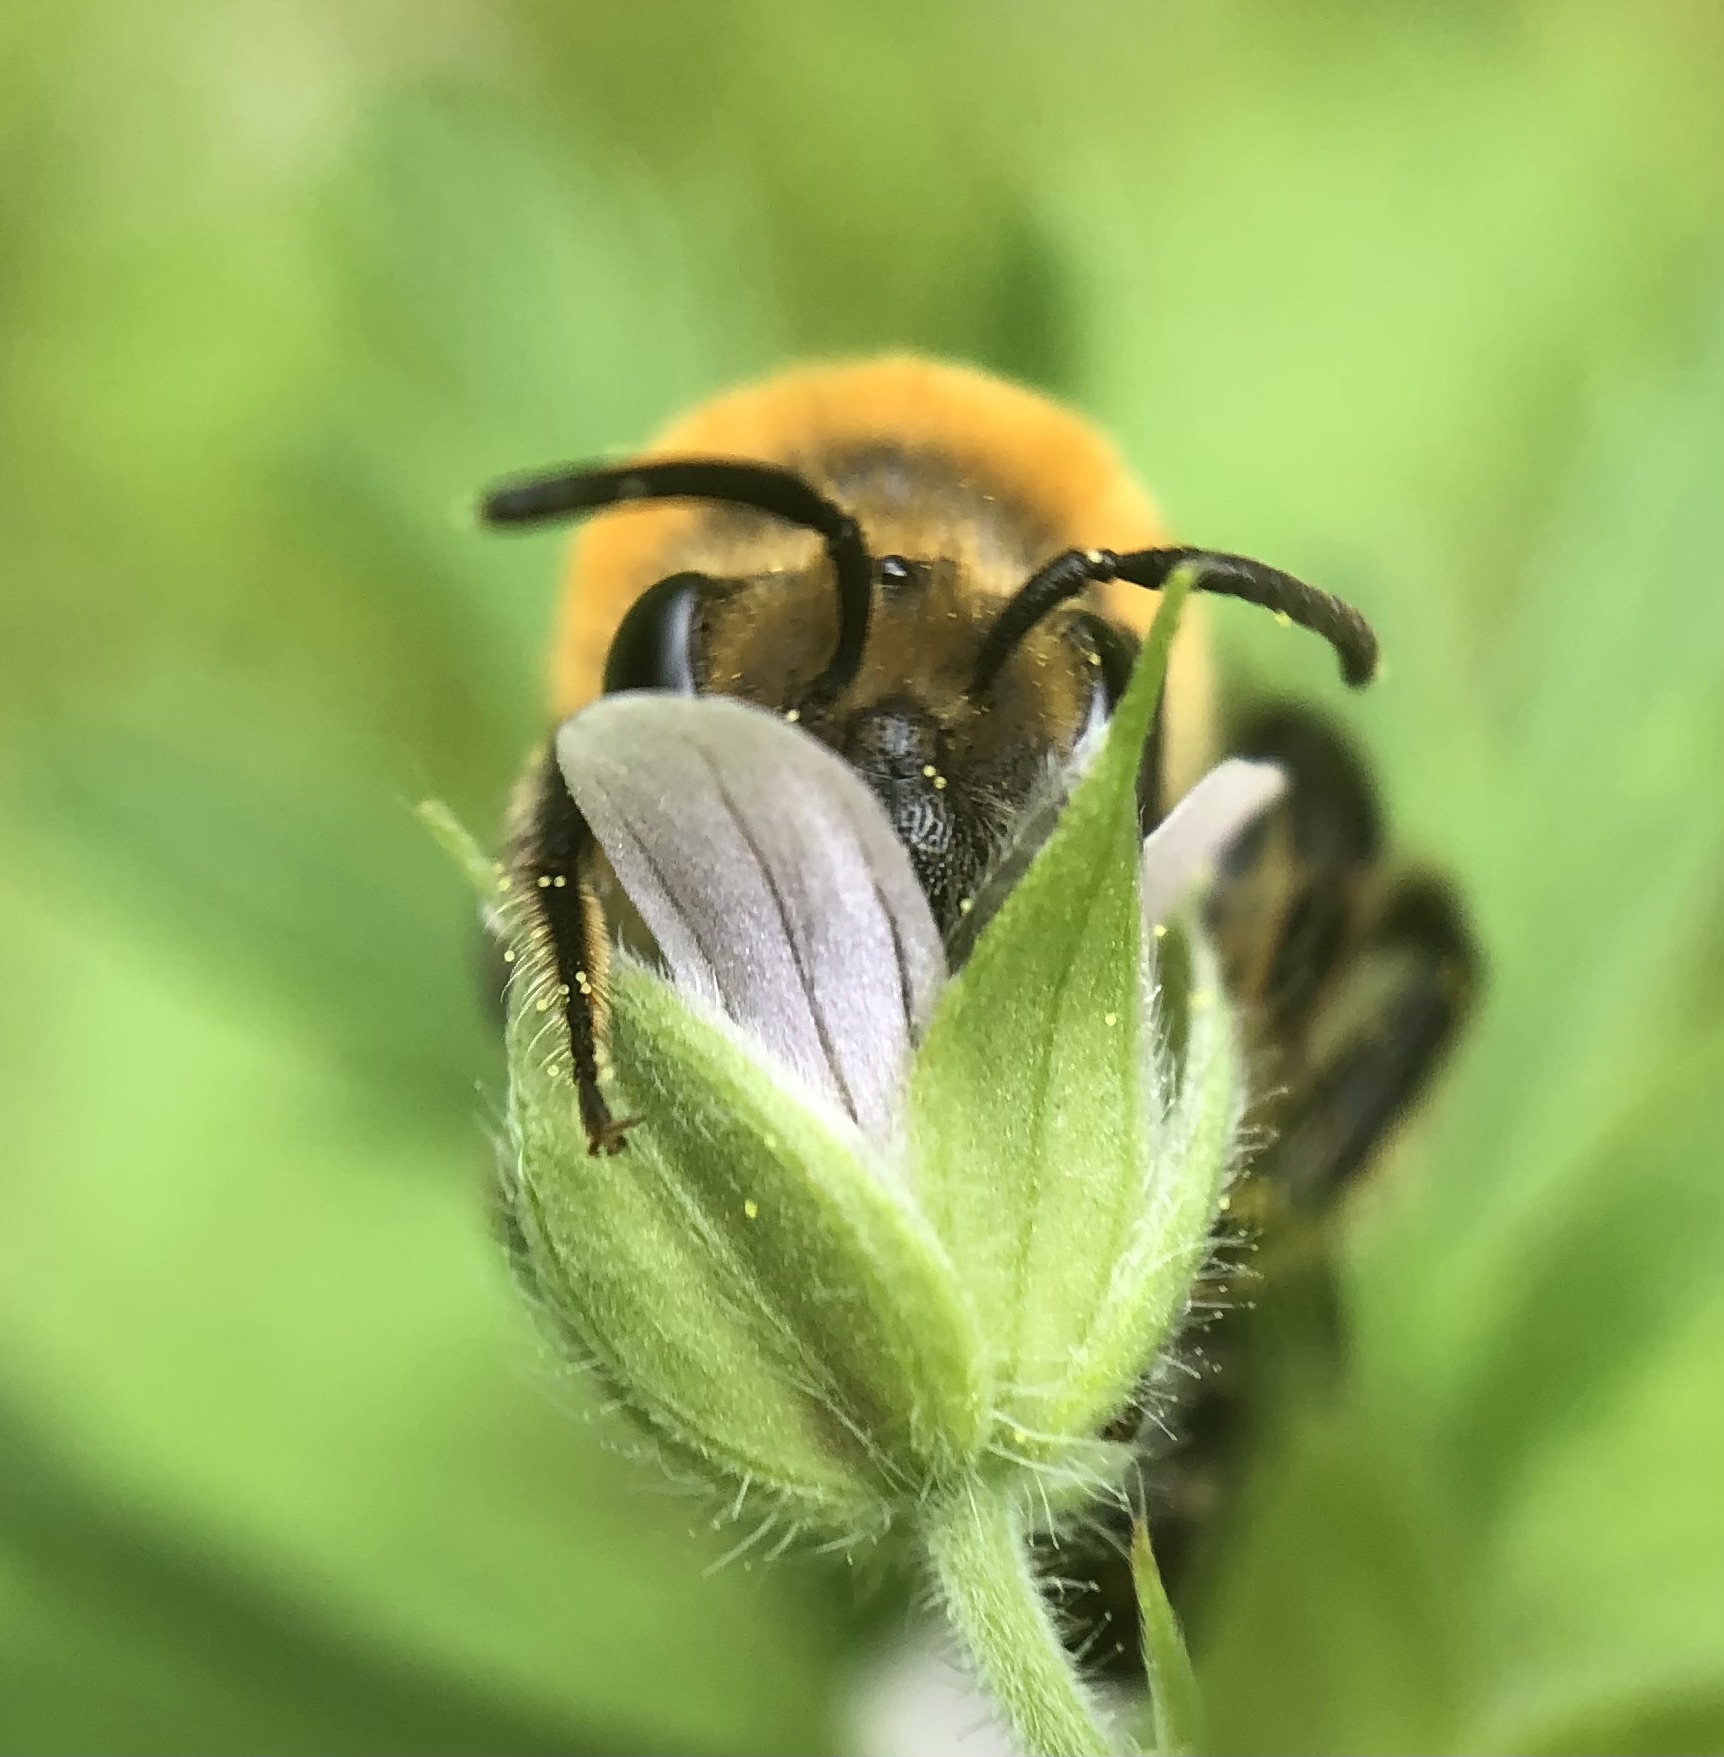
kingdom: Animalia
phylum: Arthropoda
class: Insecta
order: Hymenoptera
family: Colletidae
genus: Colletes
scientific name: Colletes thoracicus
